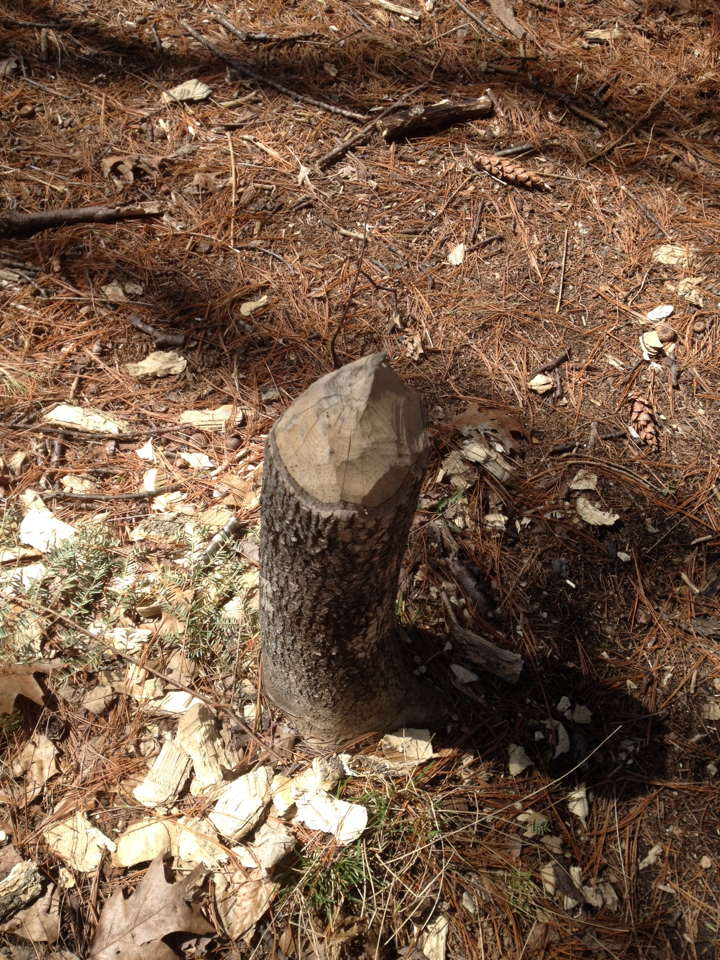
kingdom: Animalia
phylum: Chordata
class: Mammalia
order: Rodentia
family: Castoridae
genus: Castor
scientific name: Castor canadensis
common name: American beaver
